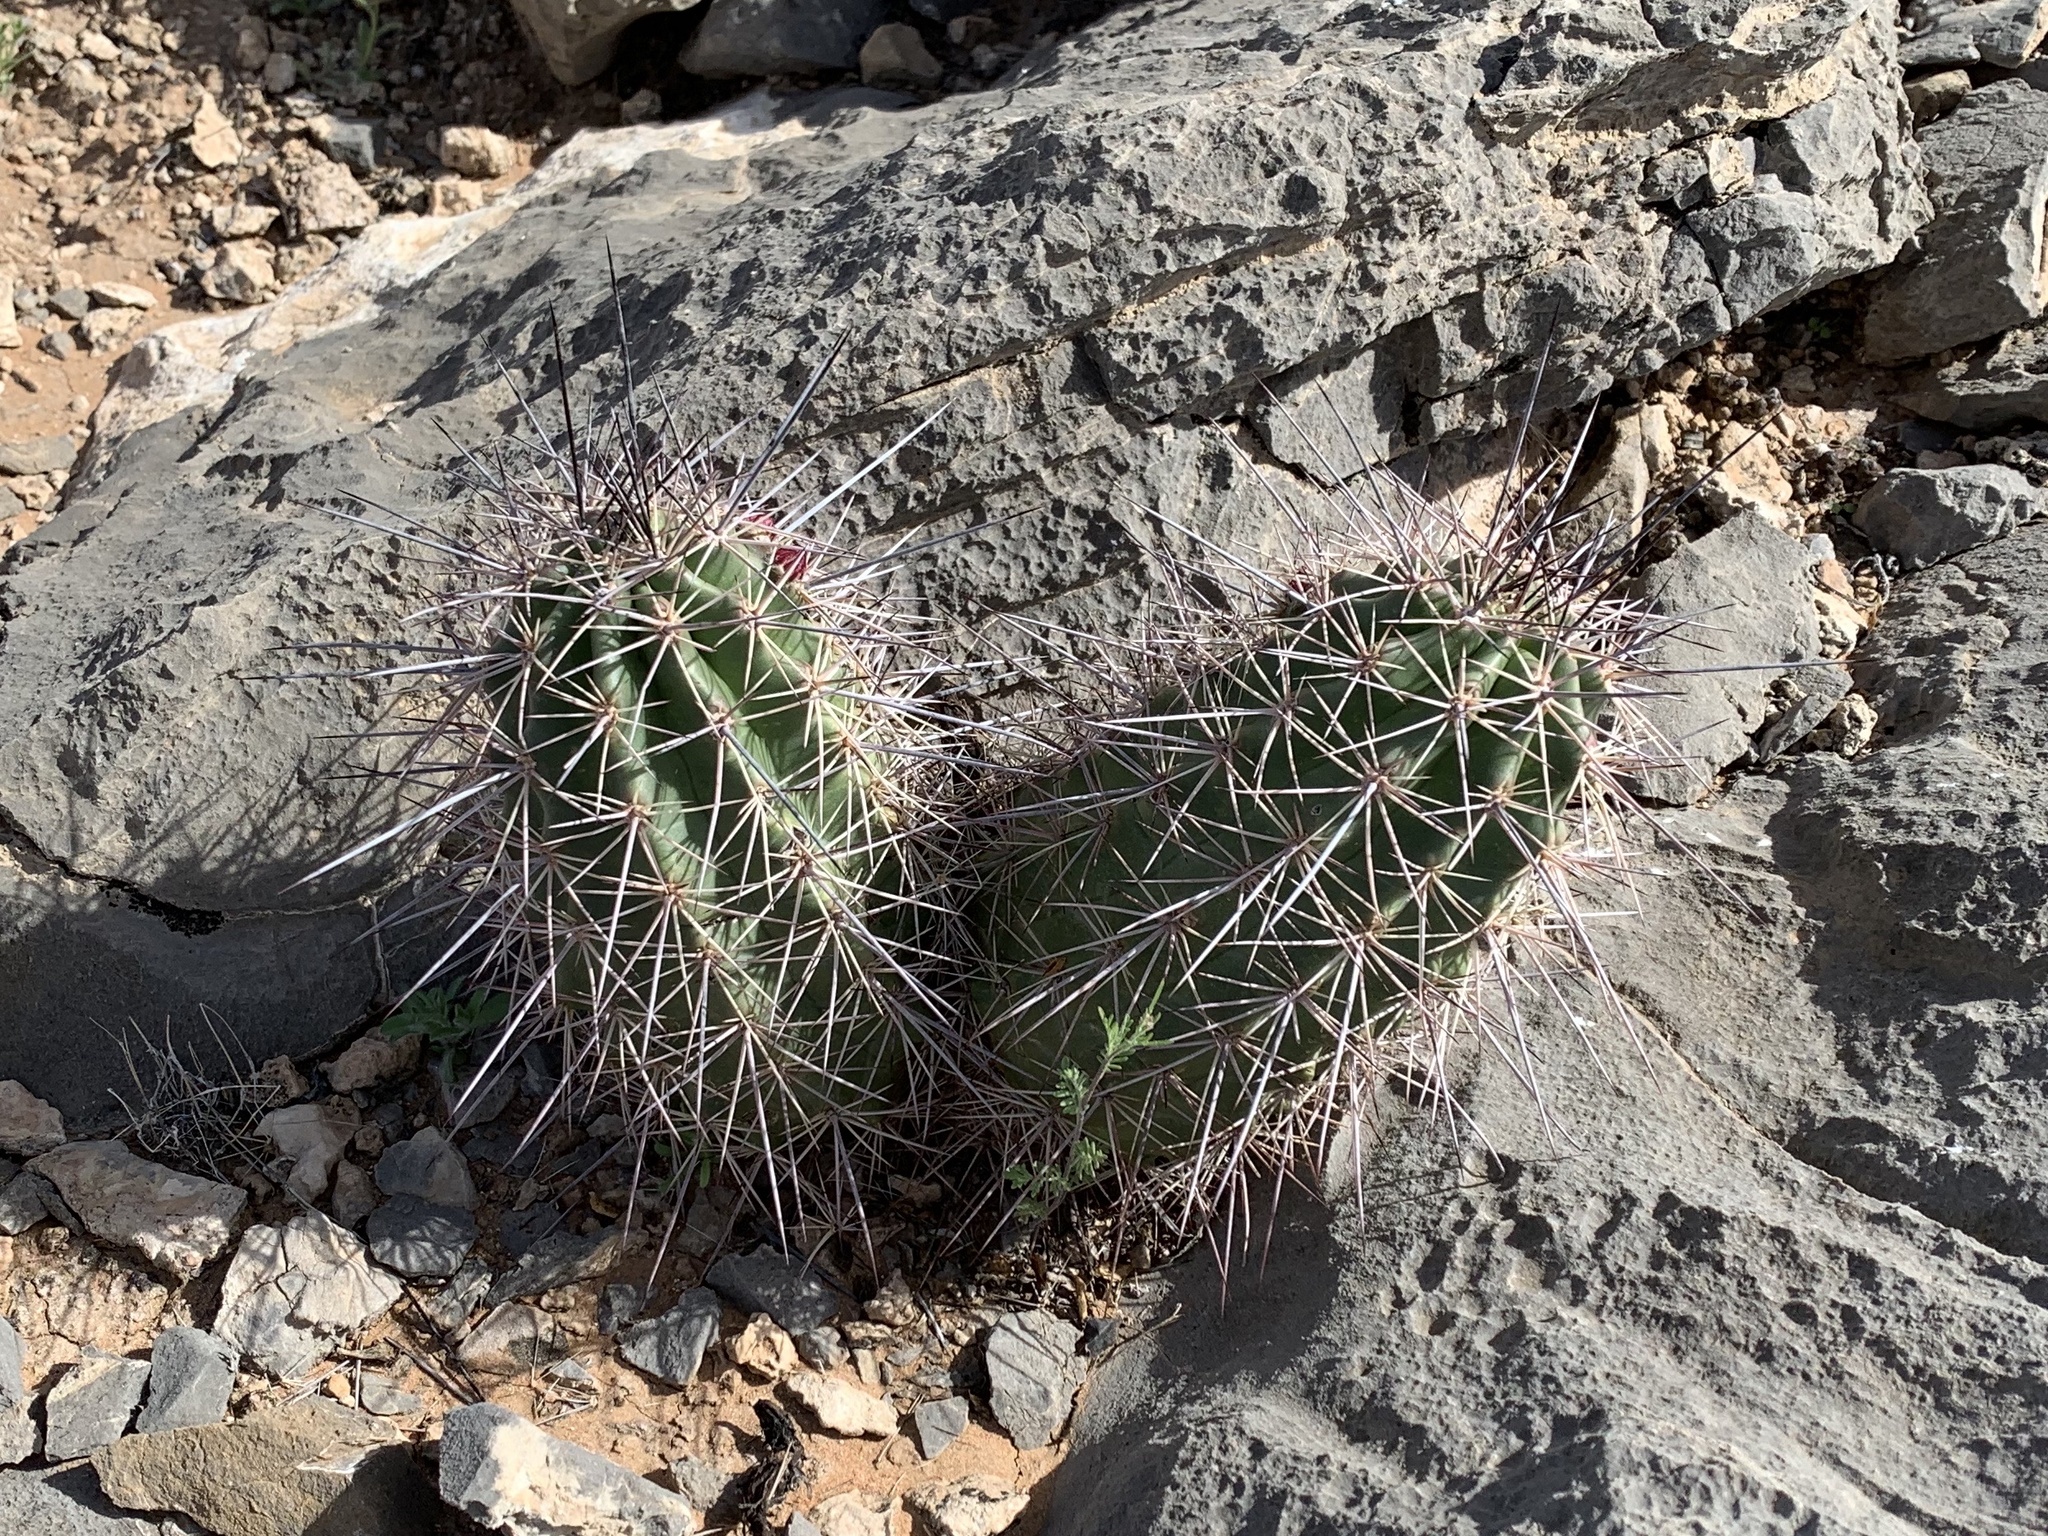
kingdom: Plantae
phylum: Tracheophyta
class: Magnoliopsida
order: Caryophyllales
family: Cactaceae
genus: Echinocereus
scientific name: Echinocereus coccineus
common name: Scarlet hedgehog cactus
